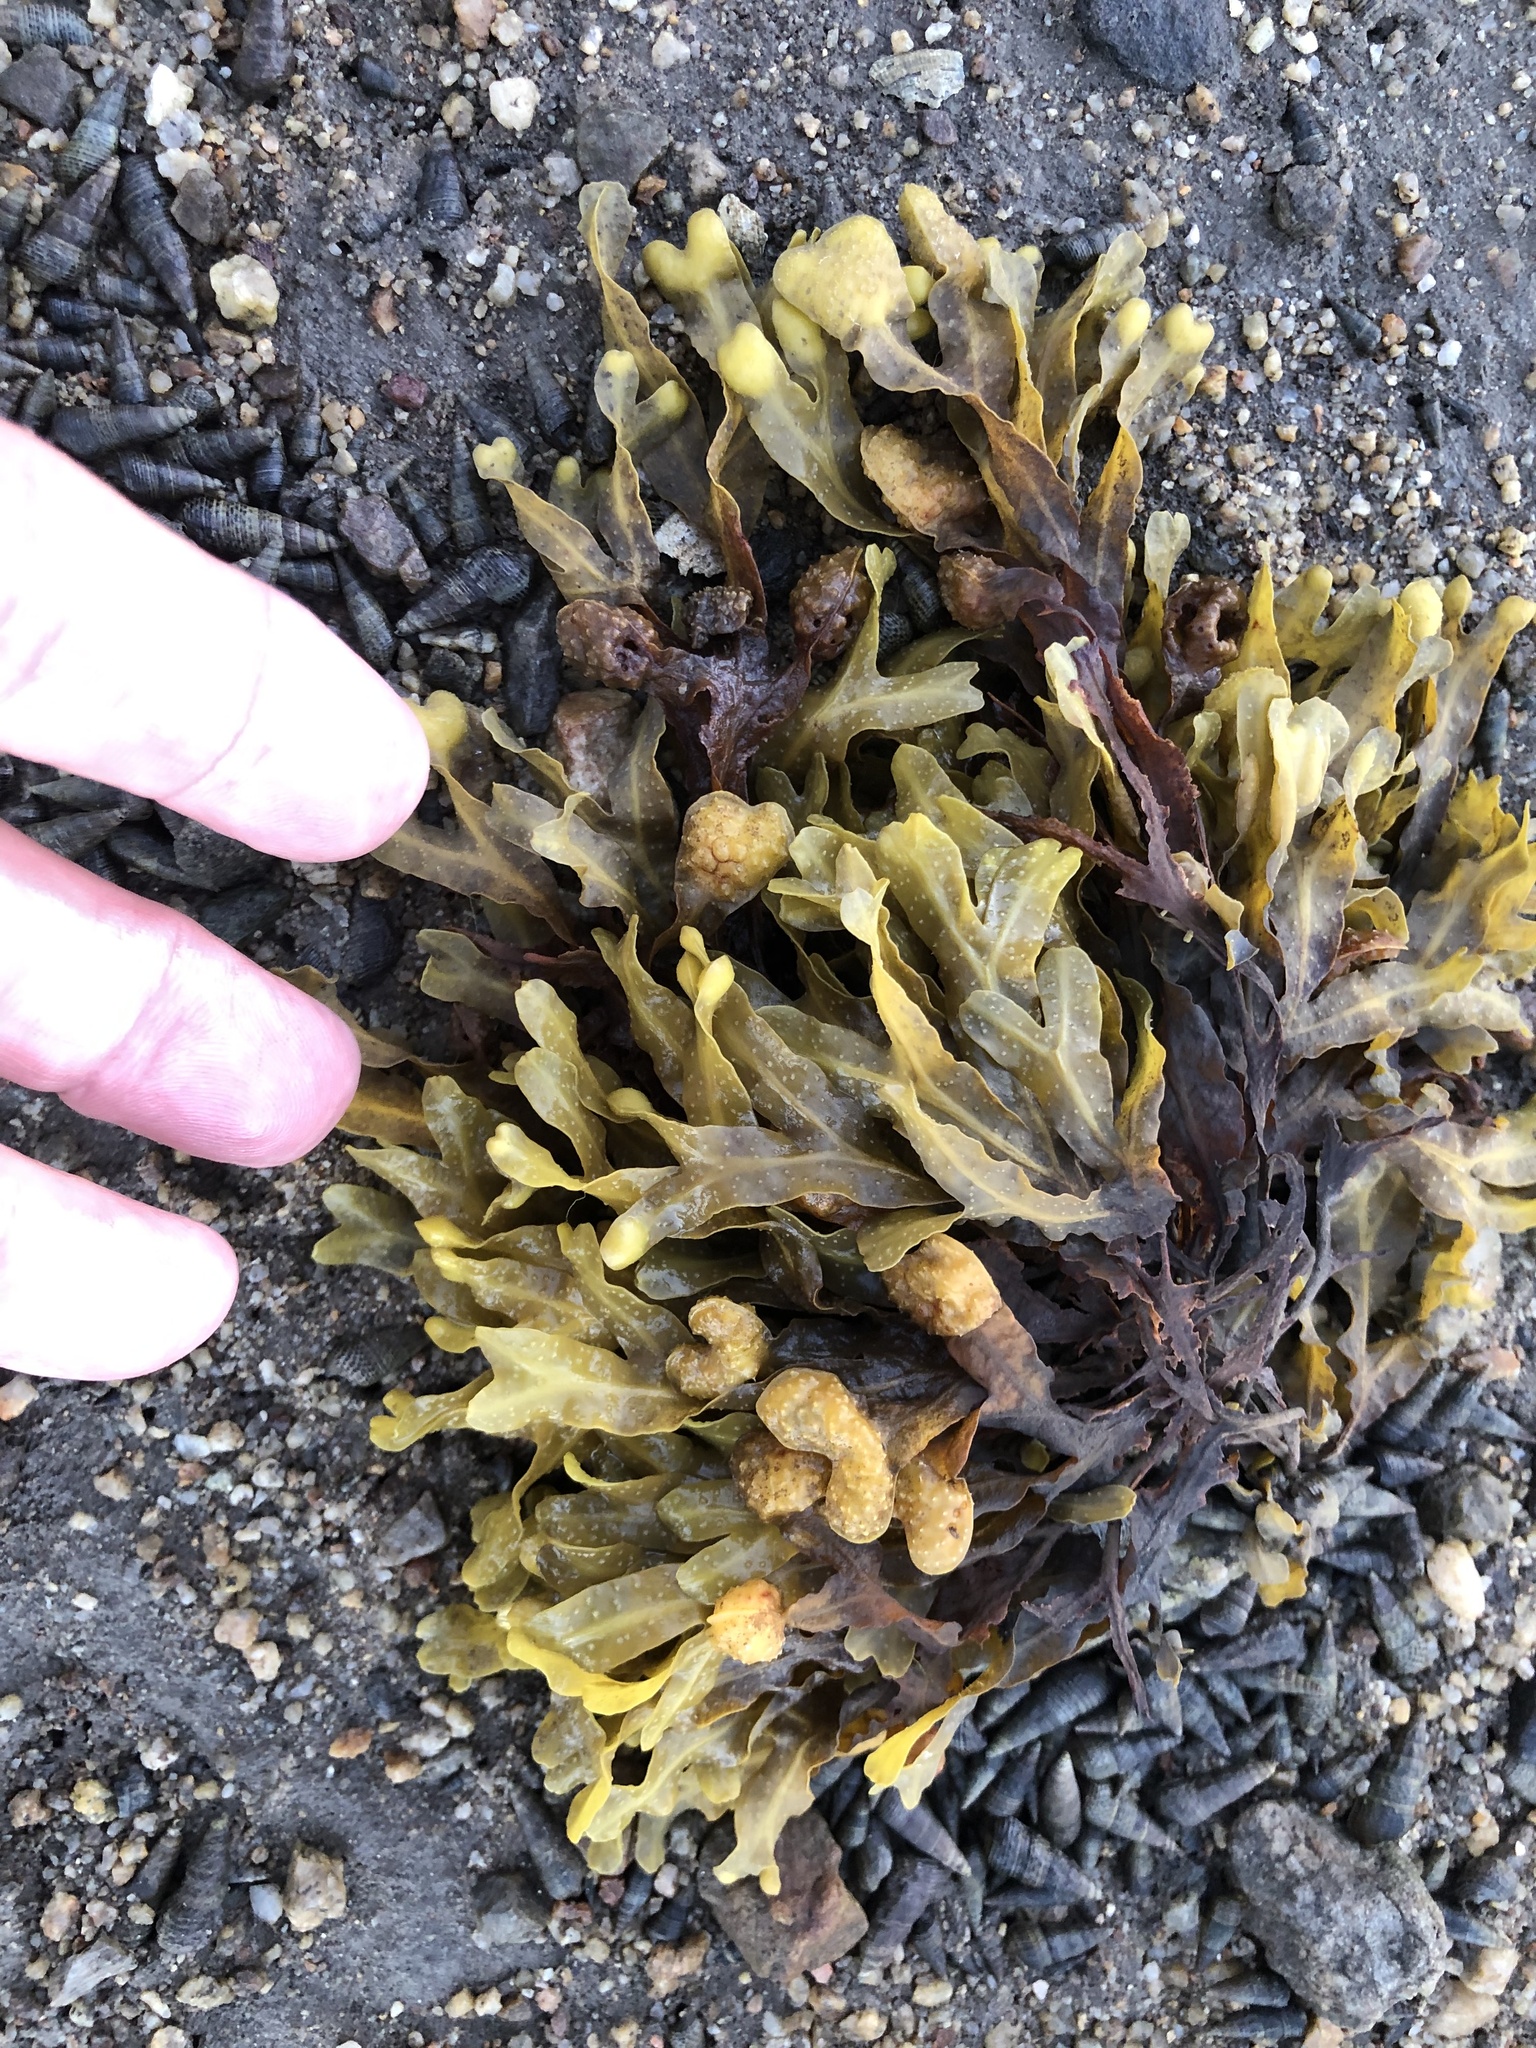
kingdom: Chromista
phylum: Ochrophyta
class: Phaeophyceae
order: Fucales
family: Fucaceae
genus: Fucus
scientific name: Fucus distichus
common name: Rockweed
